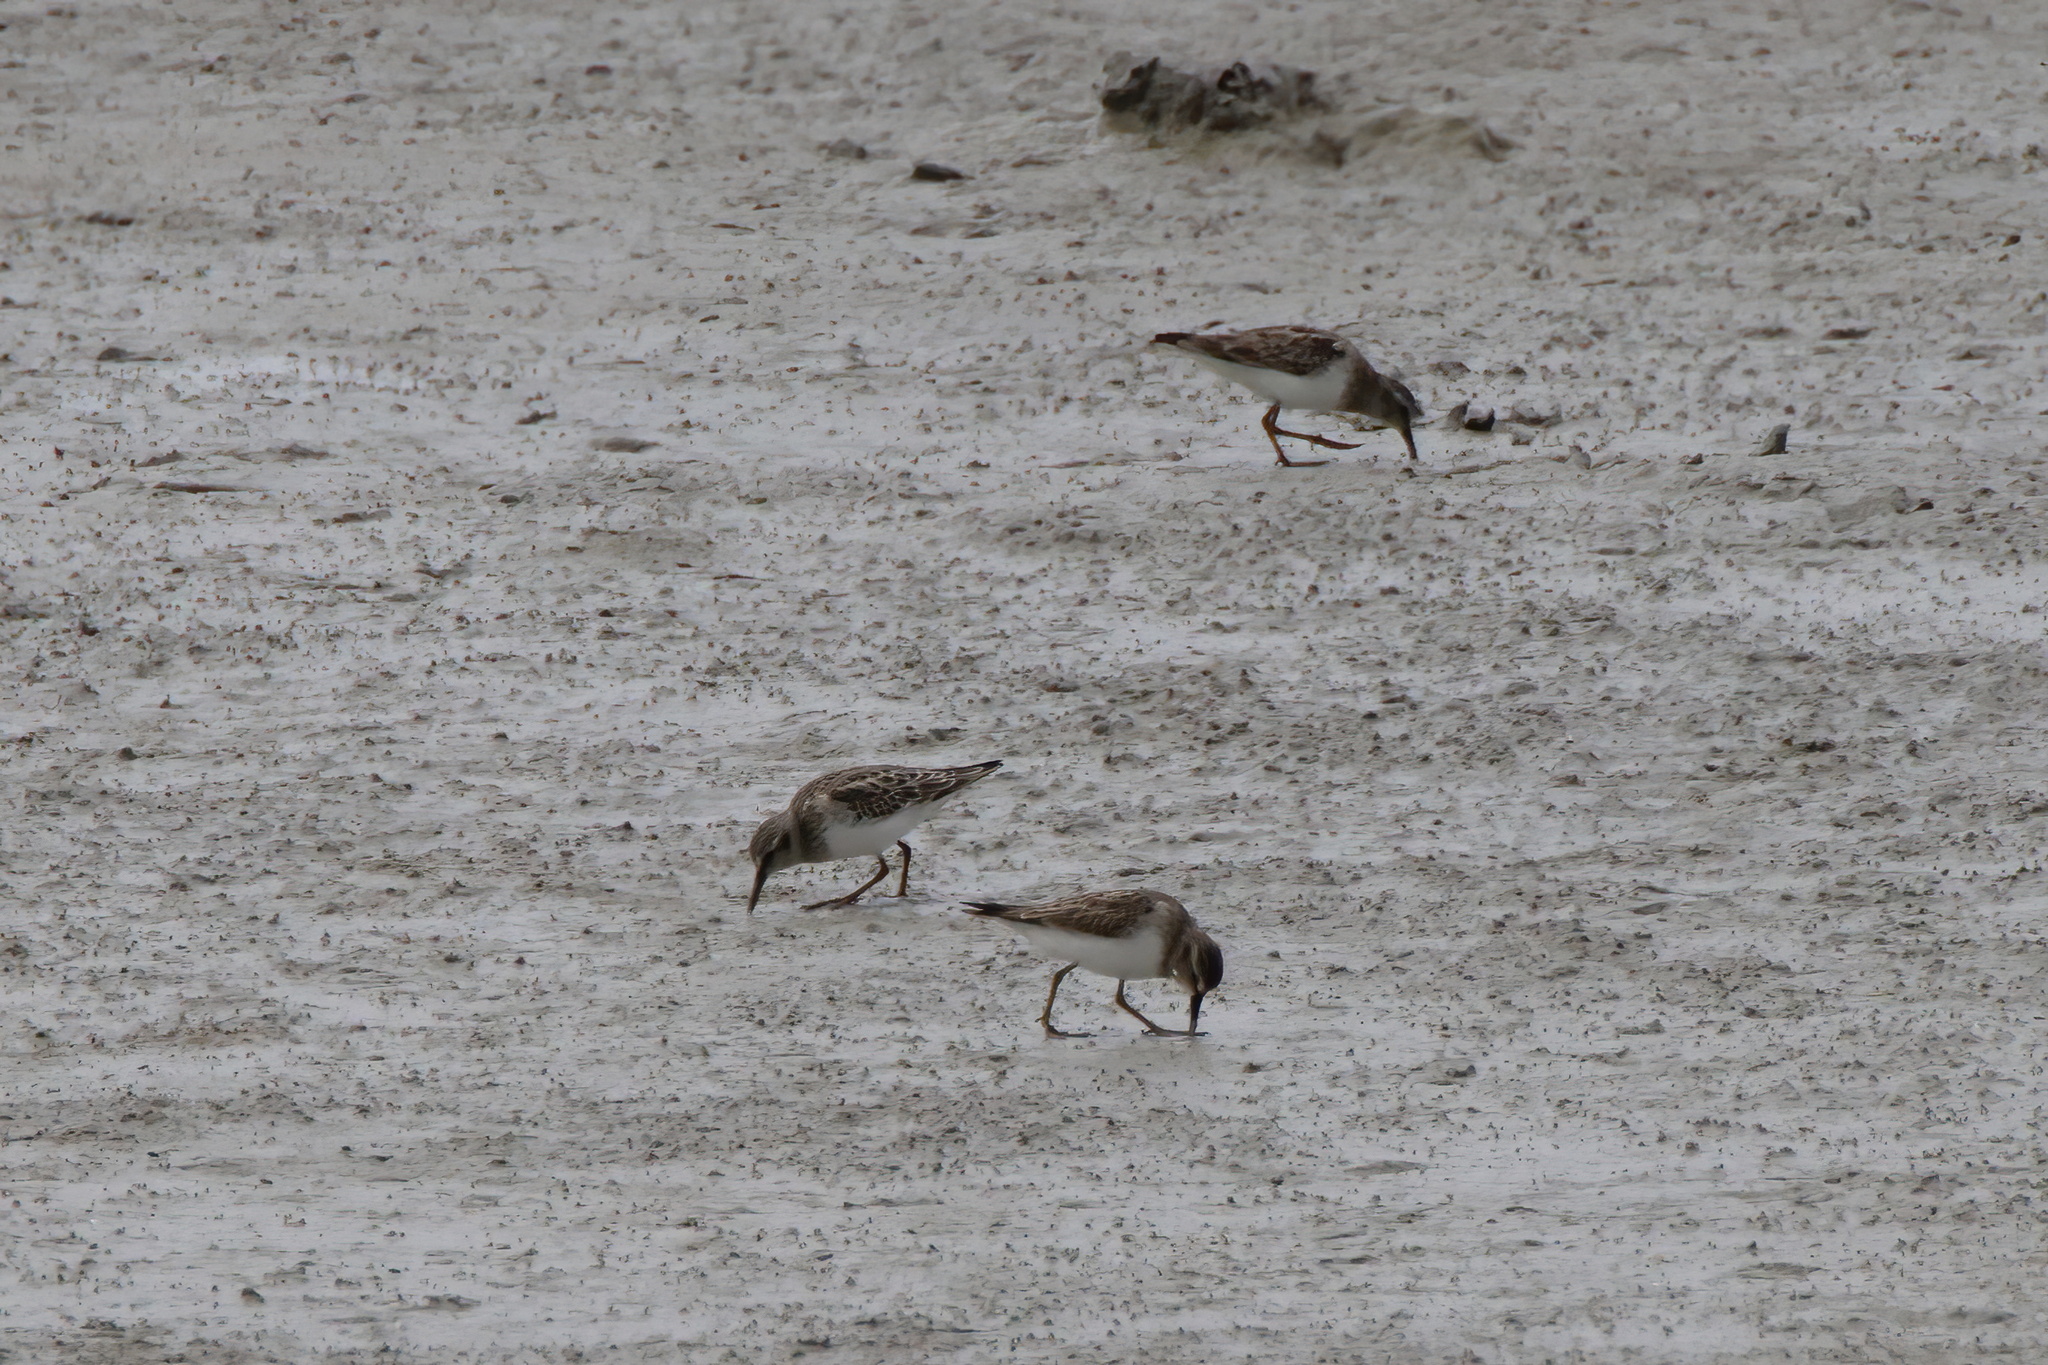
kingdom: Animalia
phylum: Chordata
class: Aves
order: Charadriiformes
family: Scolopacidae
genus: Calidris
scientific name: Calidris minutilla
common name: Least sandpiper
